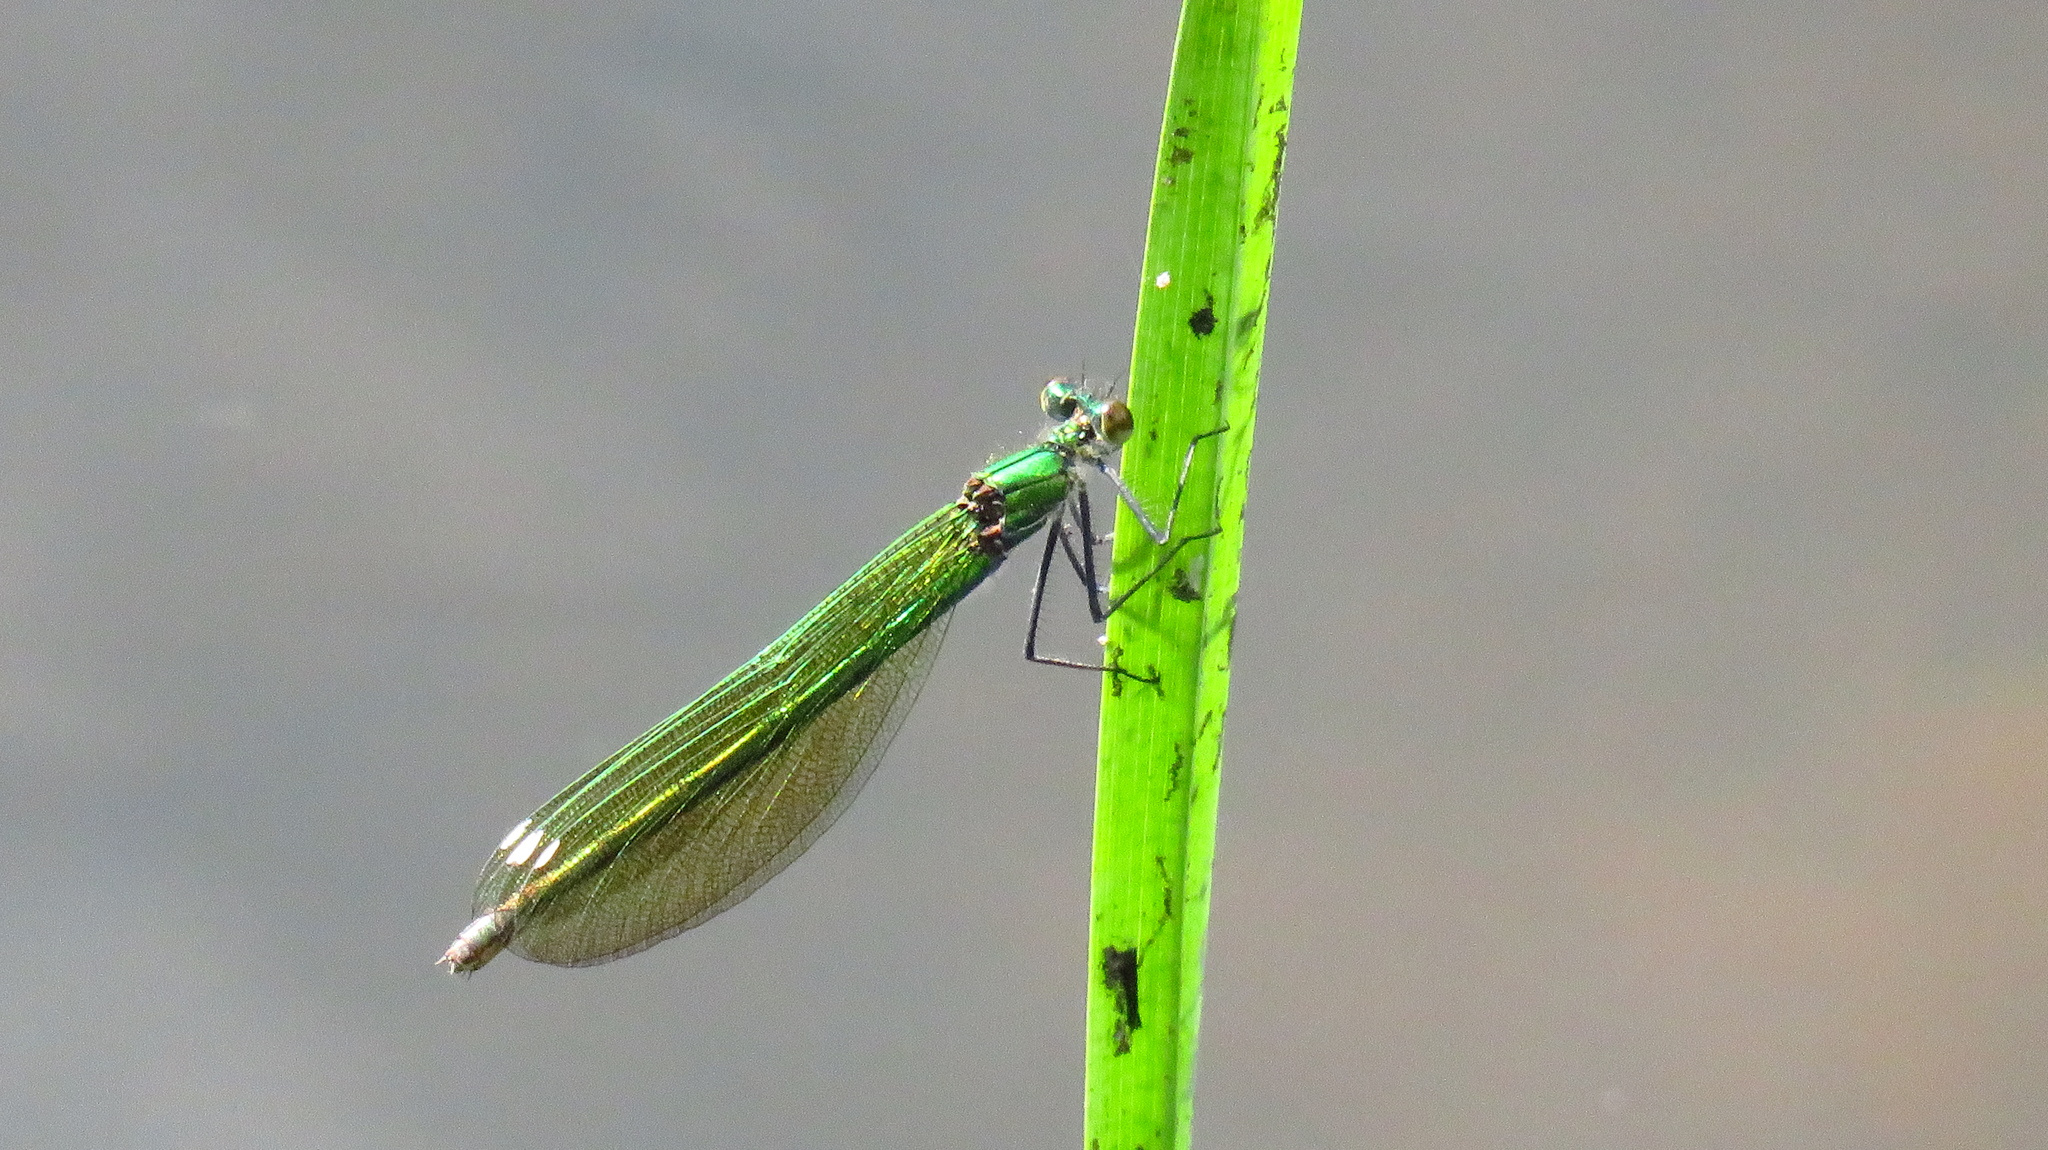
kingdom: Animalia
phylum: Arthropoda
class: Insecta
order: Odonata
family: Calopterygidae
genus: Calopteryx
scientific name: Calopteryx splendens
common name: Banded demoiselle
